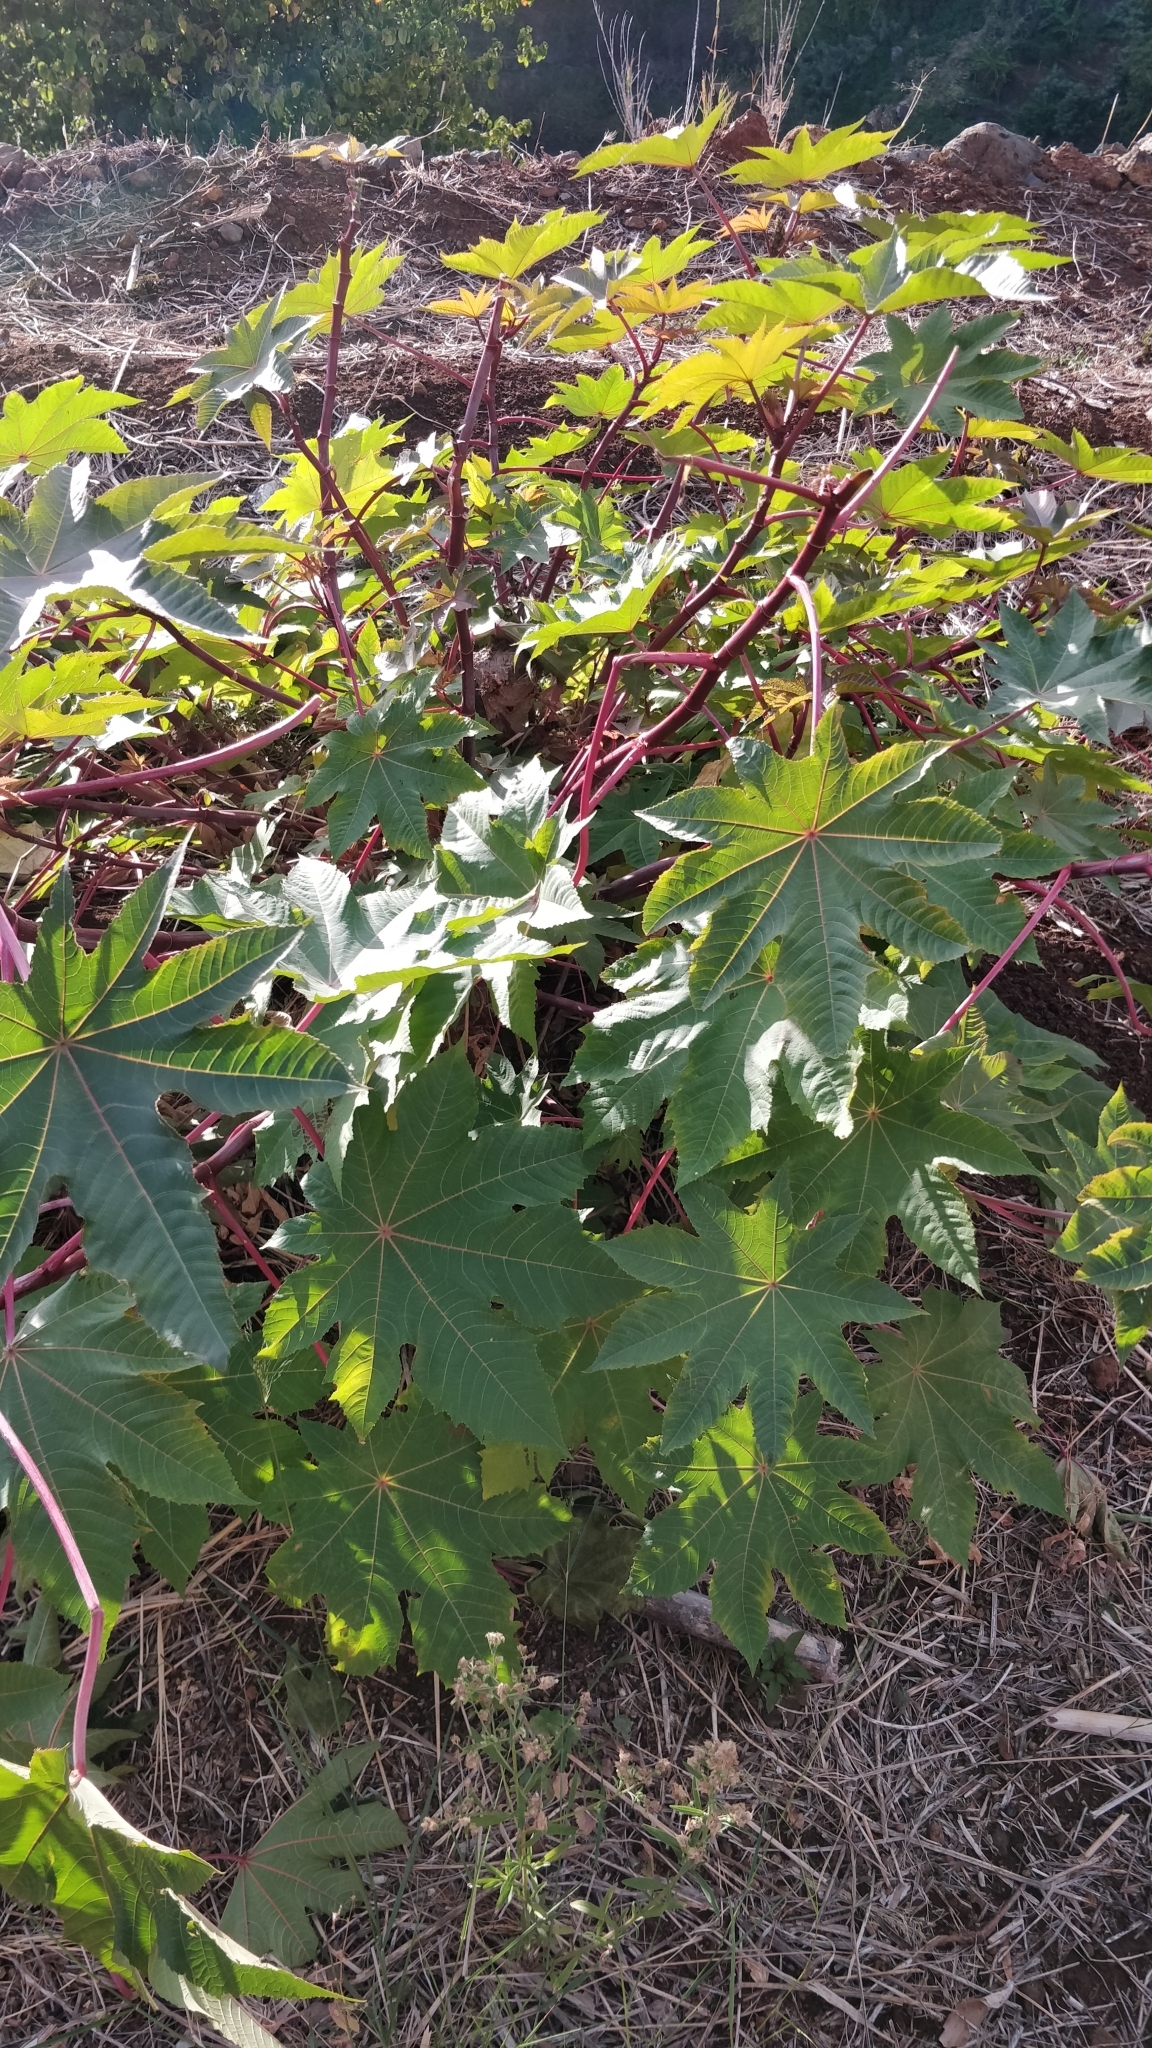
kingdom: Plantae
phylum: Tracheophyta
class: Magnoliopsida
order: Malpighiales
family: Euphorbiaceae
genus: Ricinus
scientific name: Ricinus communis
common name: Castor-oil-plant
